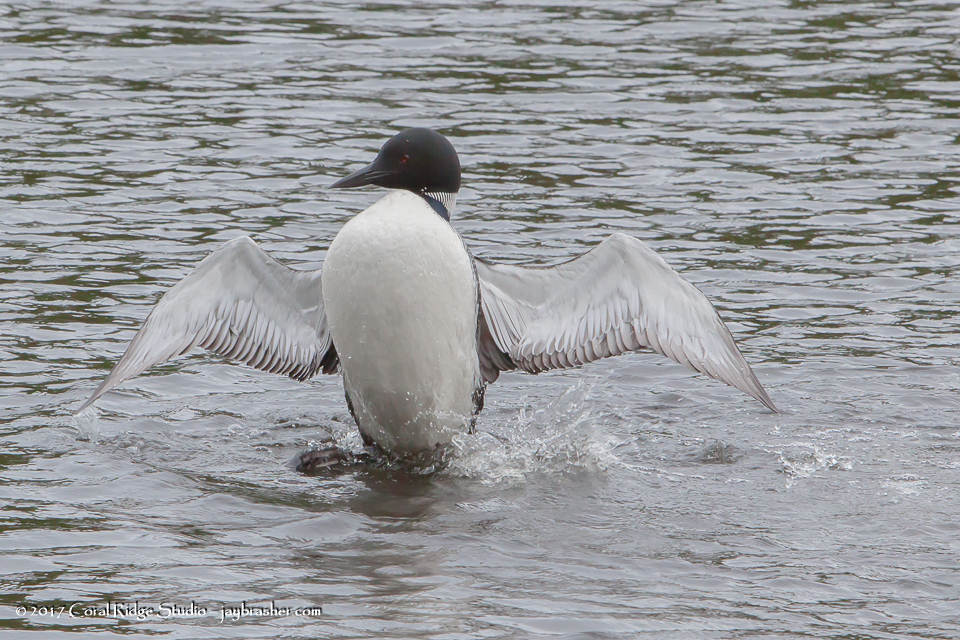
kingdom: Animalia
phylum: Chordata
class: Aves
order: Gaviiformes
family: Gaviidae
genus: Gavia
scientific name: Gavia immer
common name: Common loon
